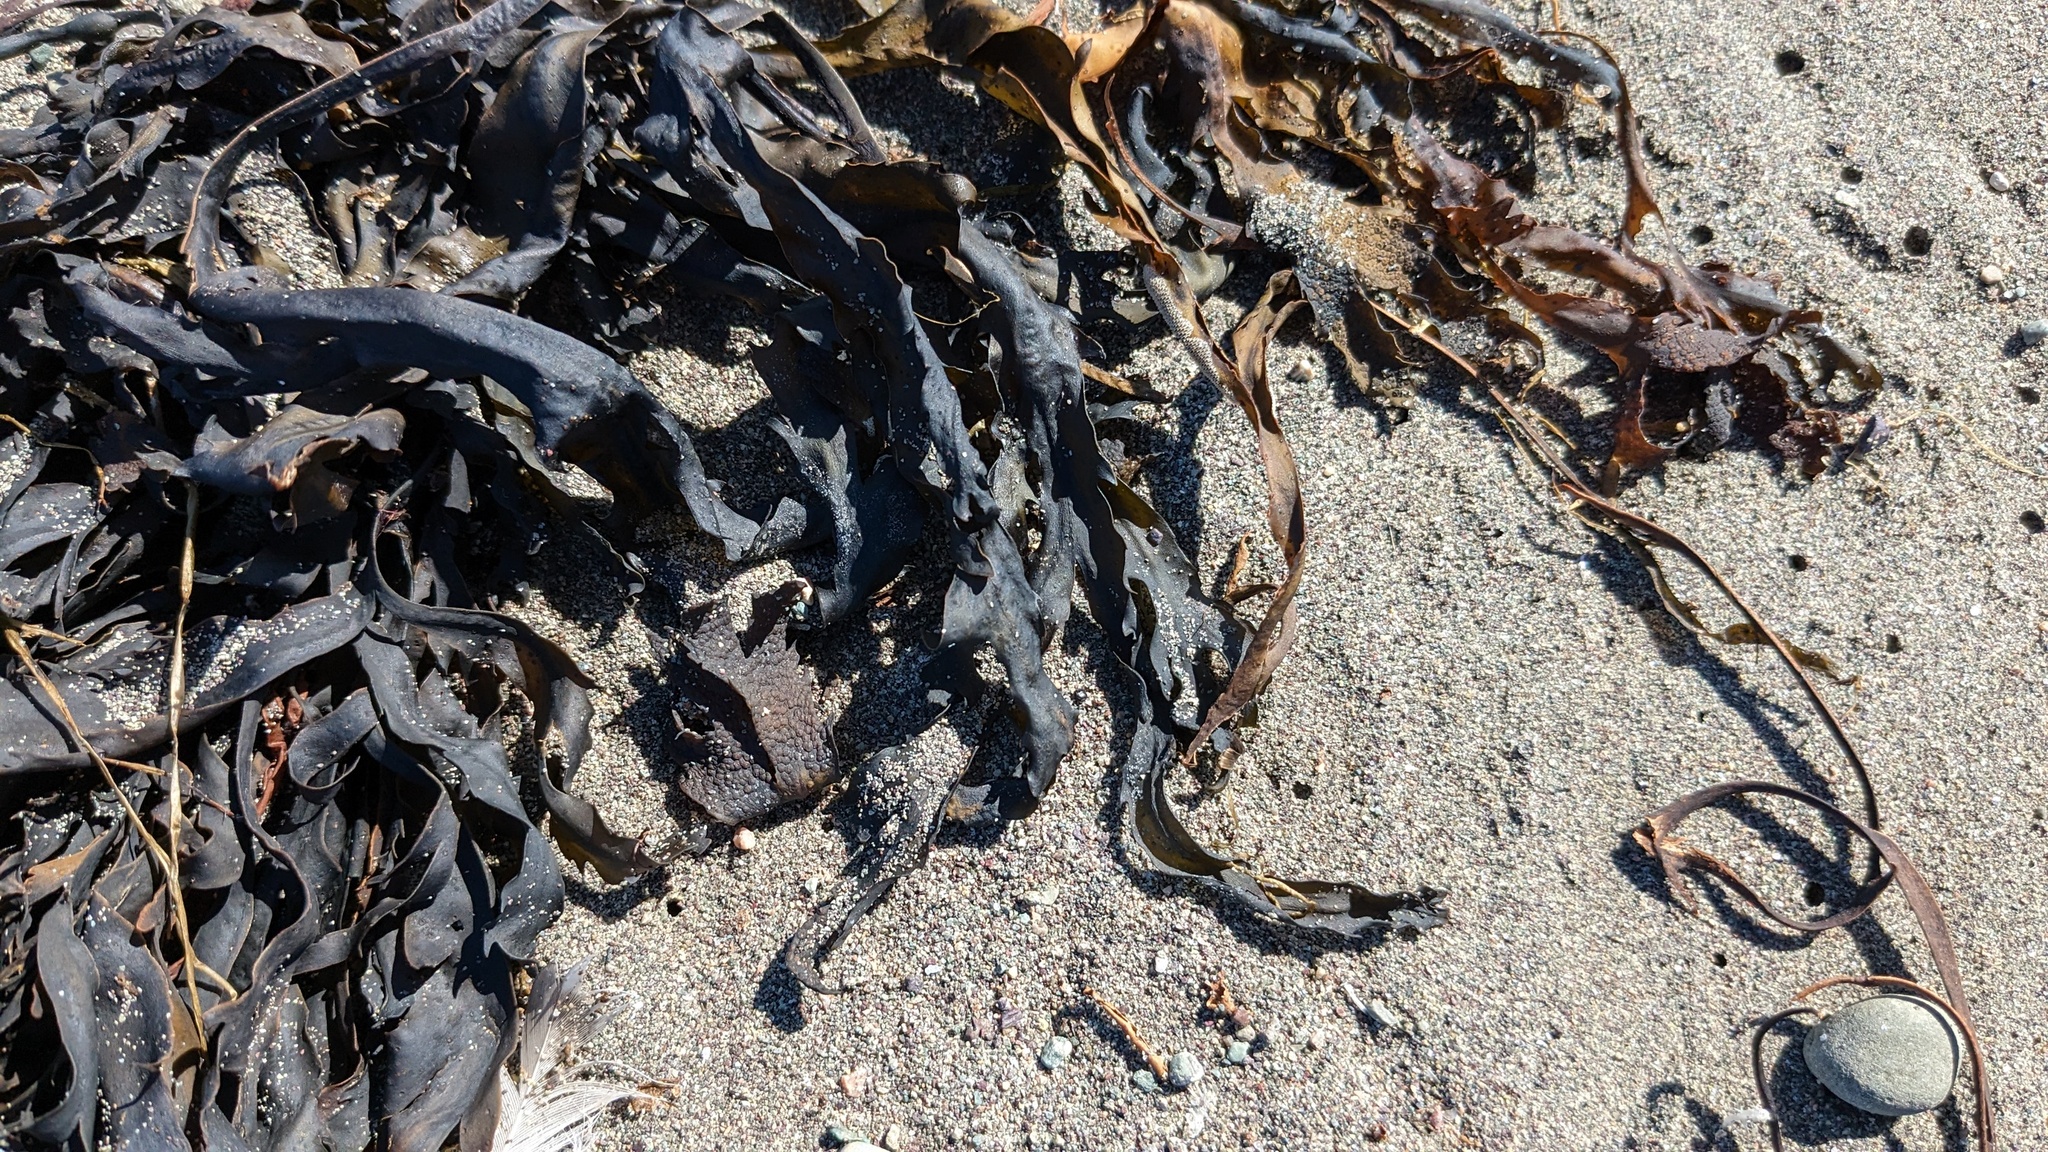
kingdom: Chromista
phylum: Ochrophyta
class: Phaeophyceae
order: Fucales
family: Fucaceae
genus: Fucus
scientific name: Fucus serratus
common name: Toothed wrack
